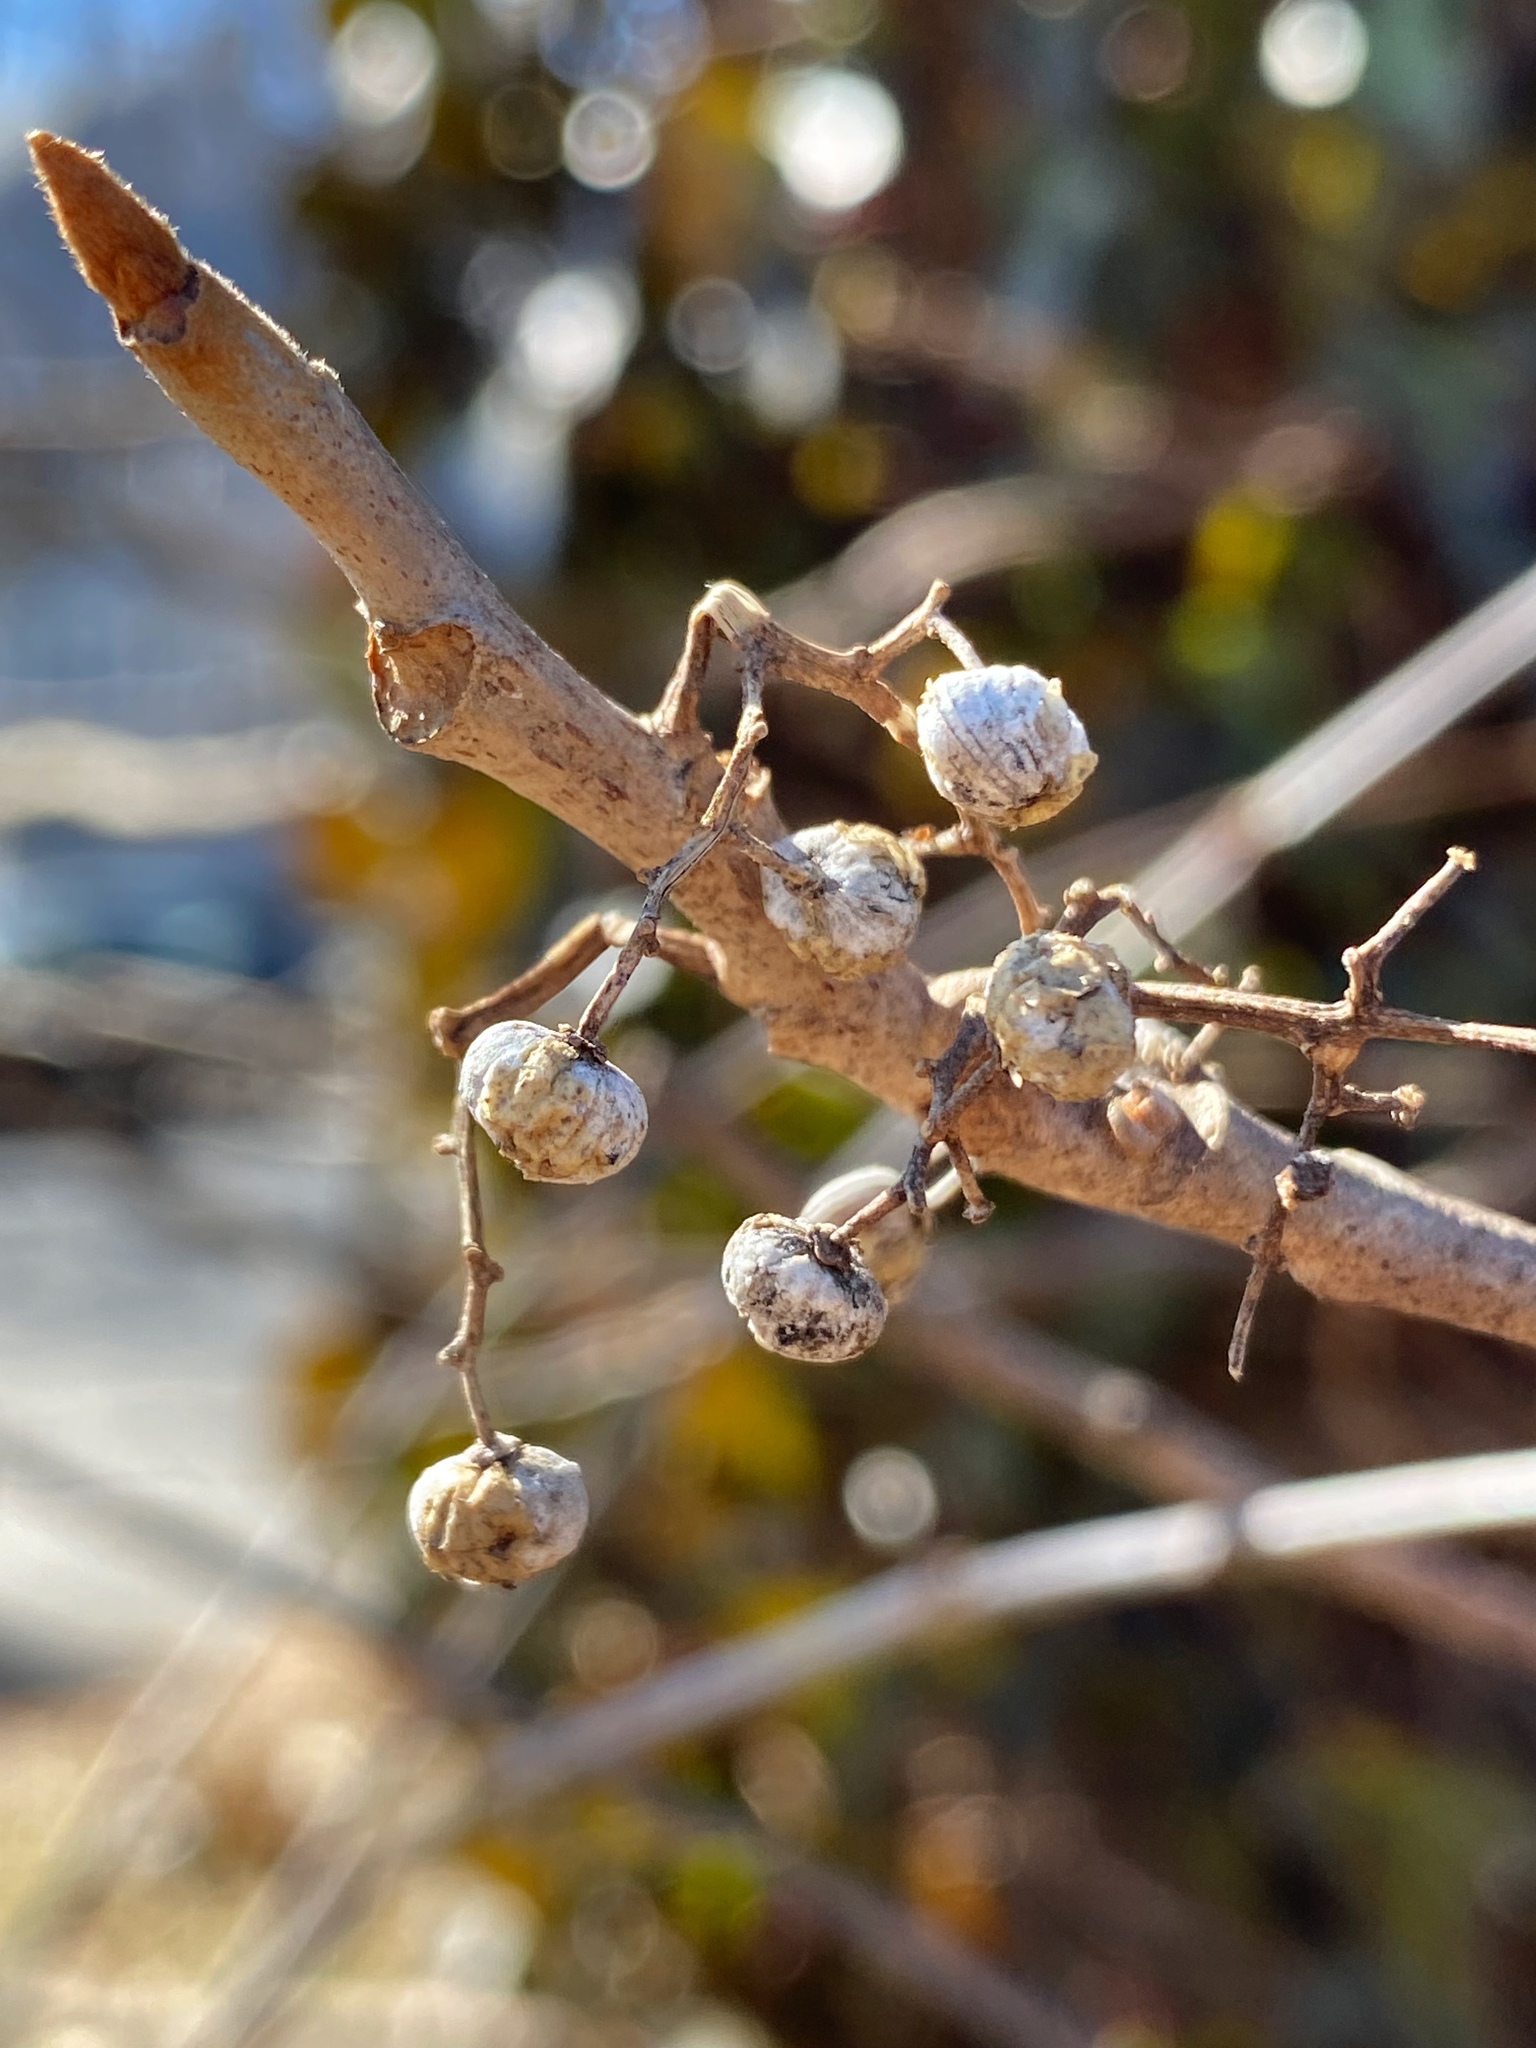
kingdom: Plantae
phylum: Tracheophyta
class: Magnoliopsida
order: Sapindales
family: Anacardiaceae
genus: Toxicodendron
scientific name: Toxicodendron radicans
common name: Poison ivy
